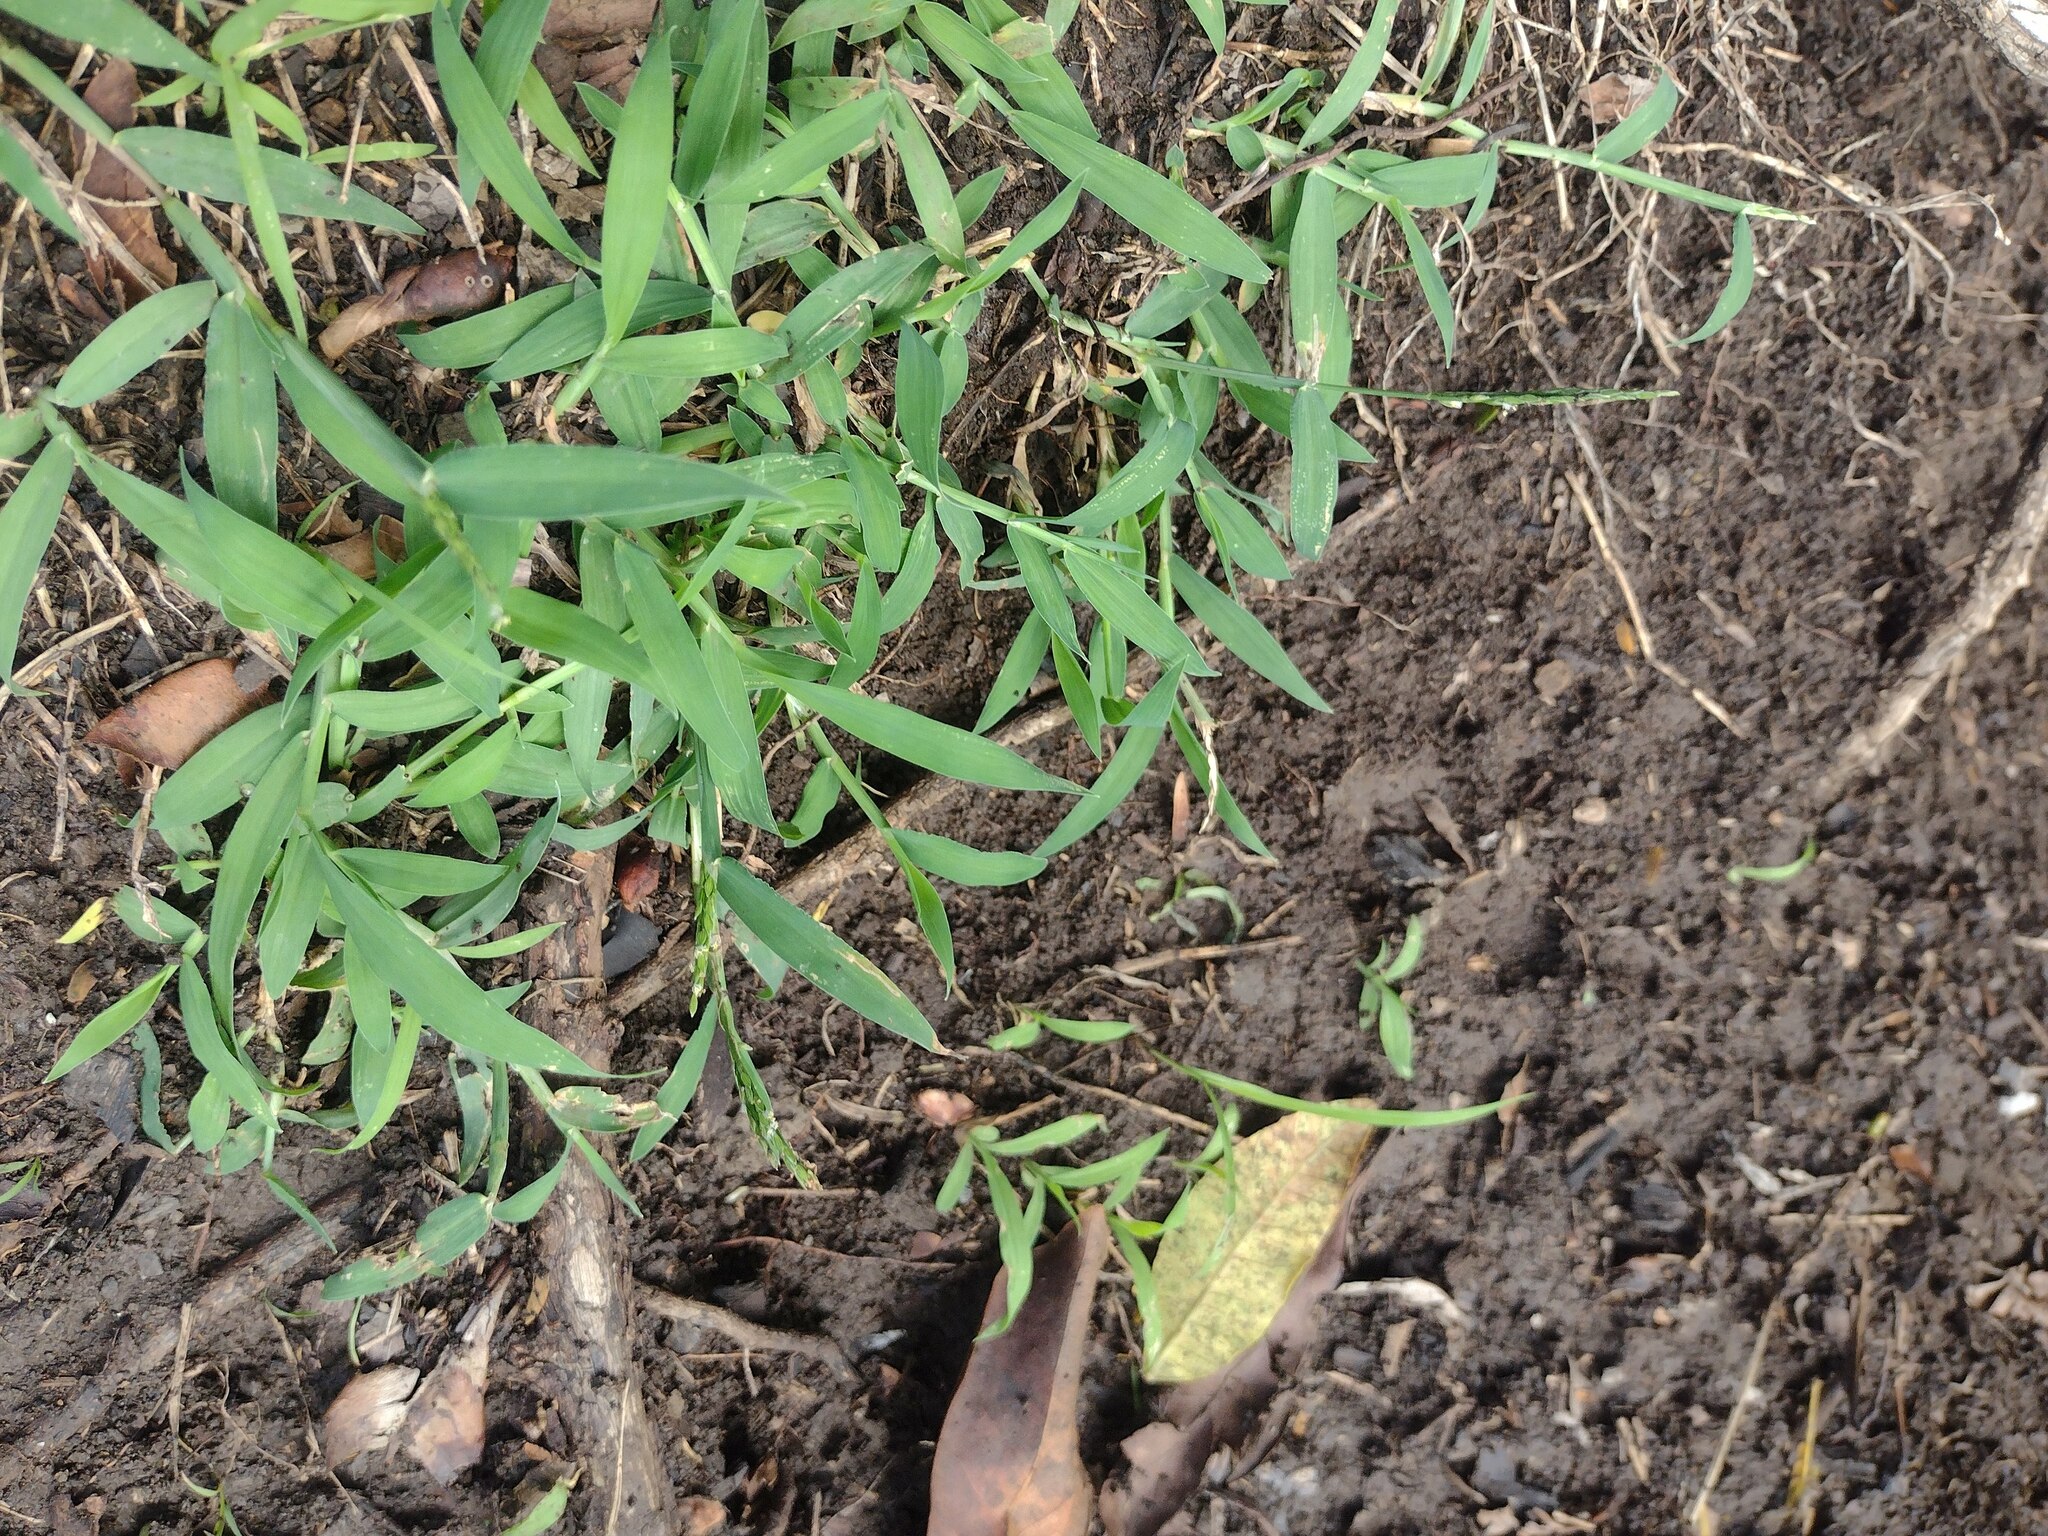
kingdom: Plantae
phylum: Tracheophyta
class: Liliopsida
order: Poales
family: Poaceae
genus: Digitaria
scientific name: Digitaria ciliaris
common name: Tropical finger-grass
